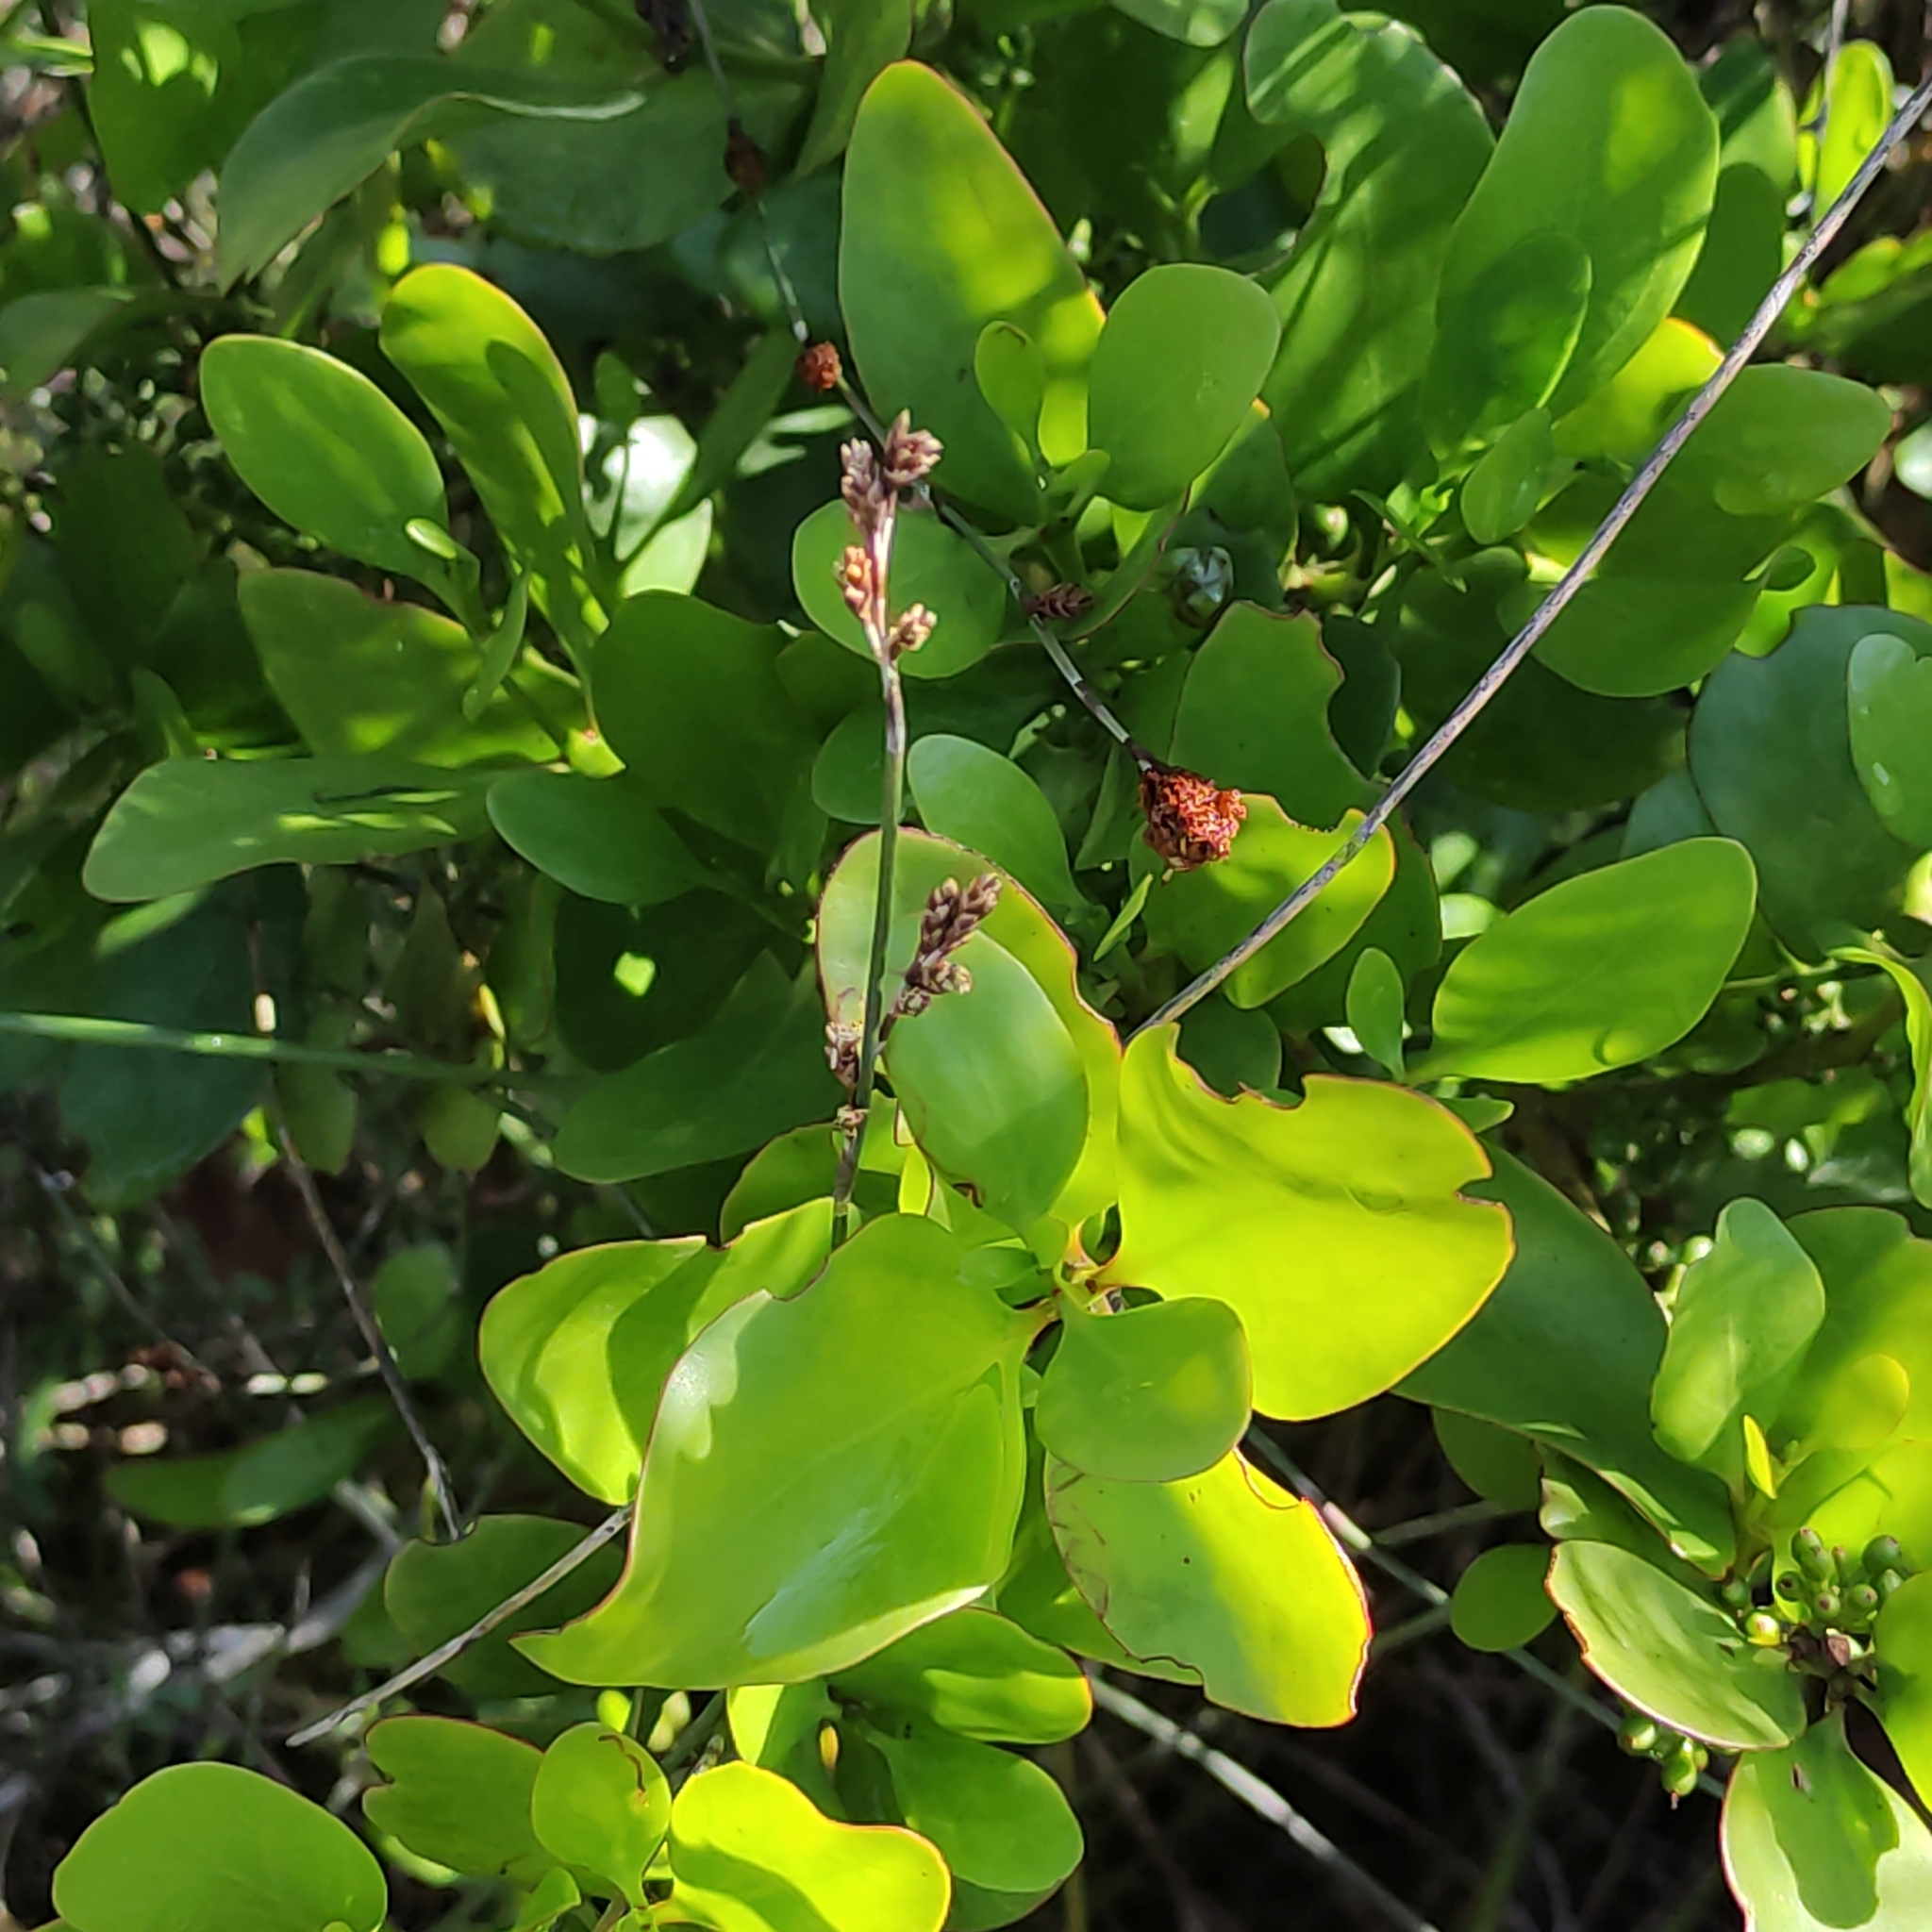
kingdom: Plantae
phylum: Tracheophyta
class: Magnoliopsida
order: Santalales
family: Loranthaceae
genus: Ileostylus
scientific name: Ileostylus micranthus
